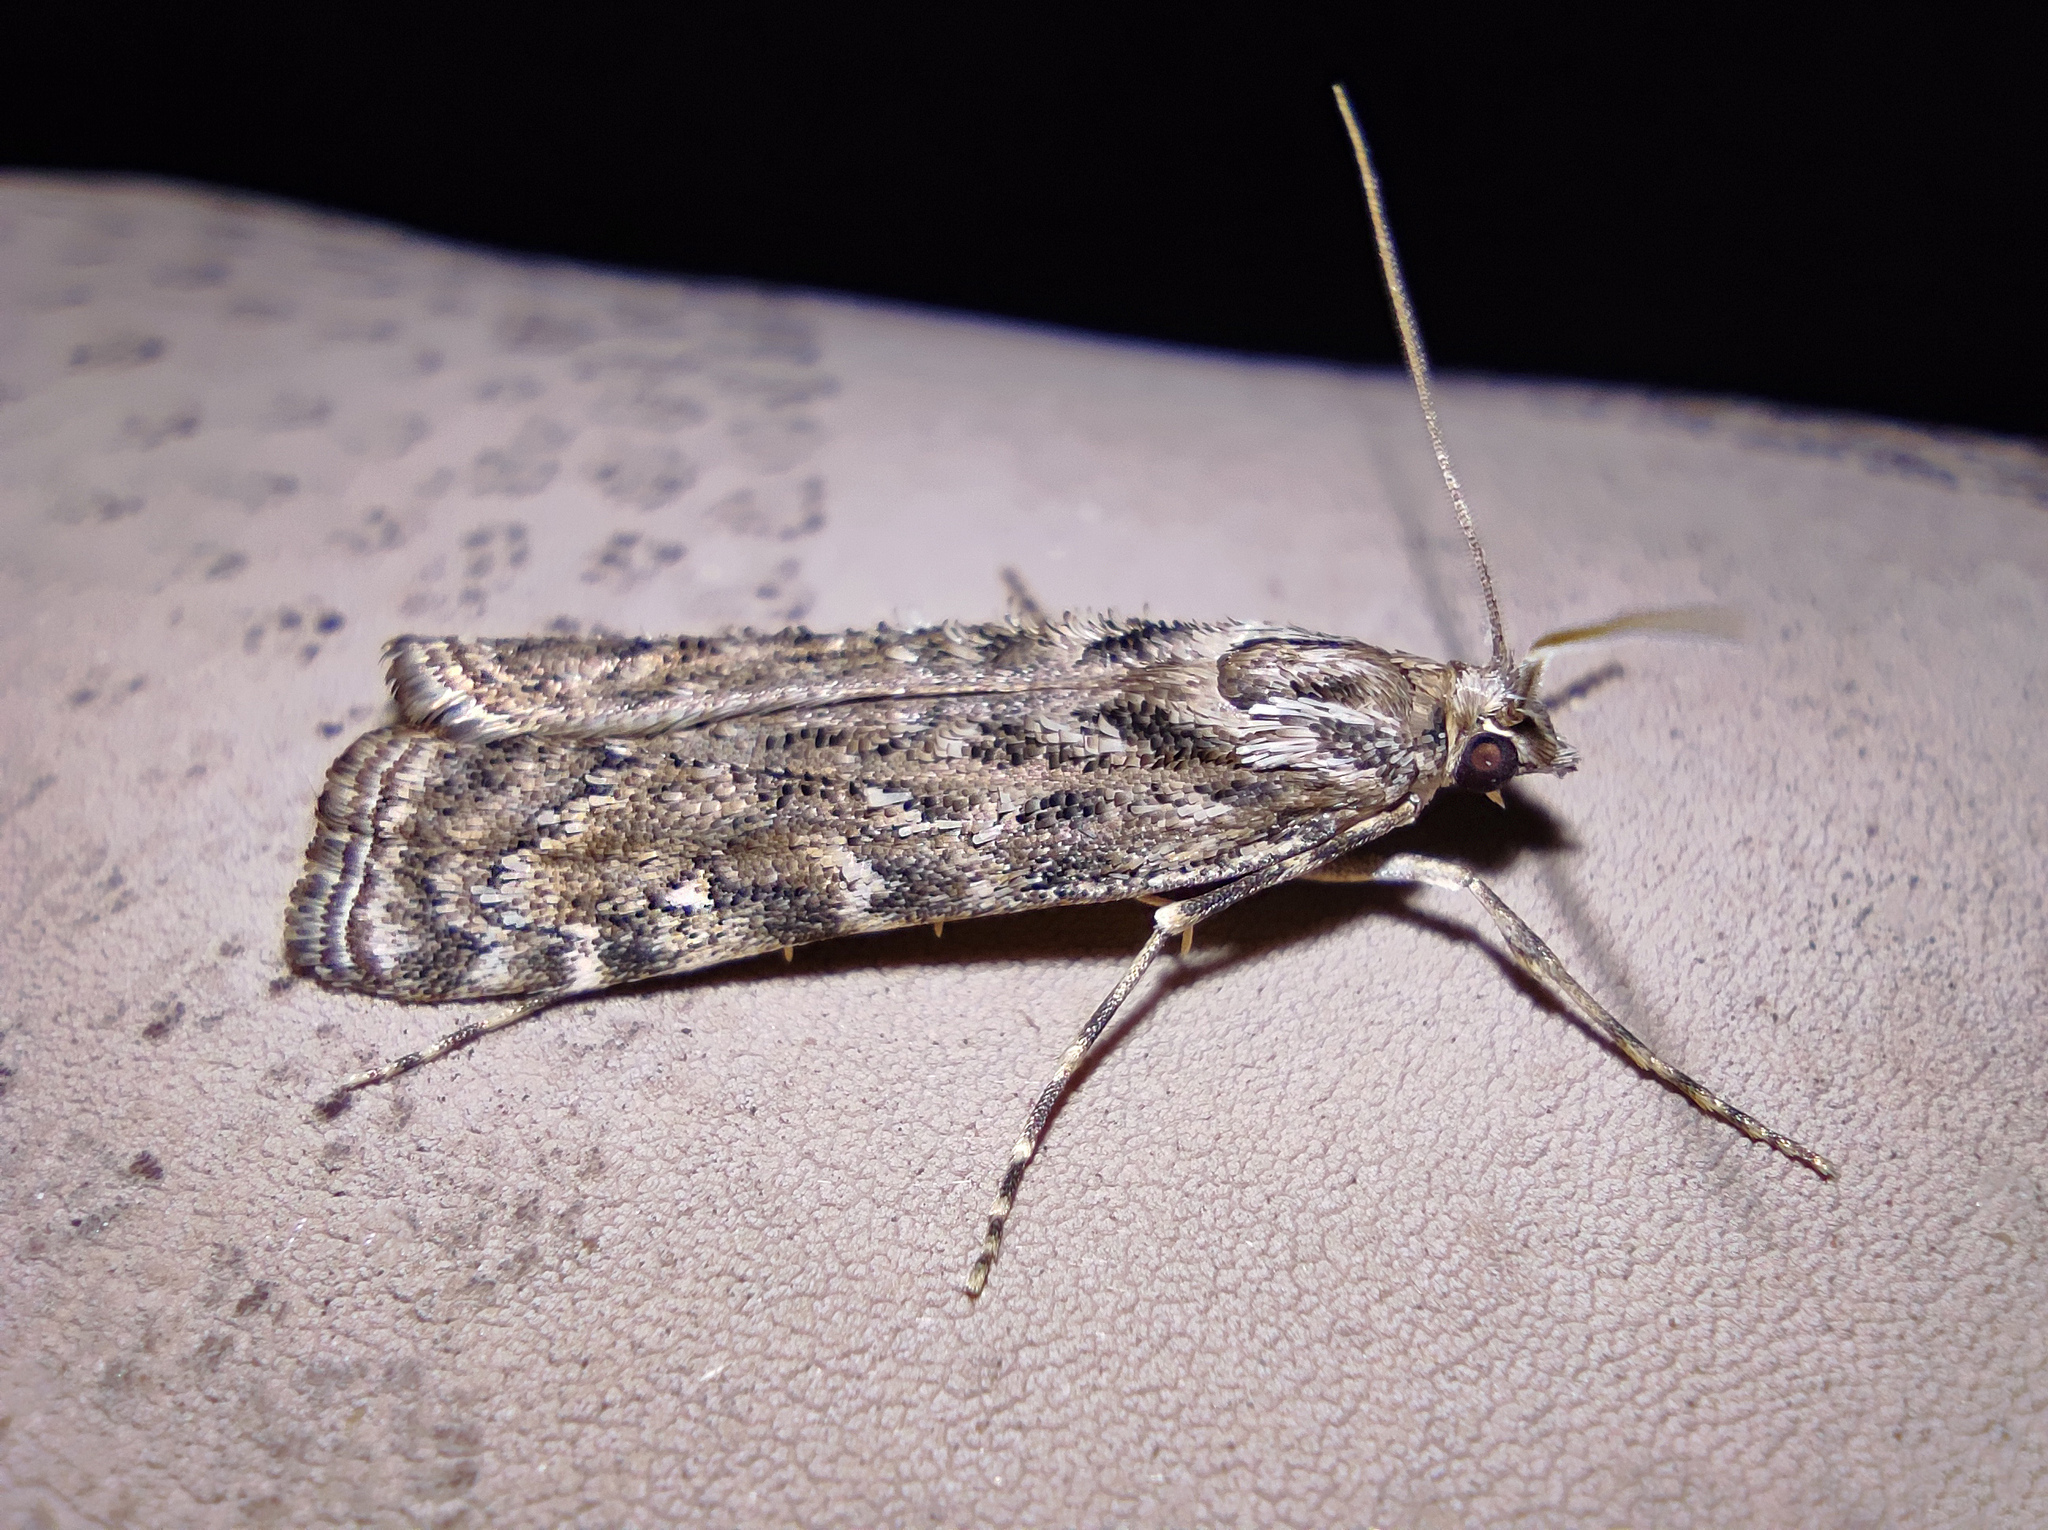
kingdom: Animalia
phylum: Arthropoda
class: Insecta
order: Lepidoptera
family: Crambidae
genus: Talis
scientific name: Talis quercella
